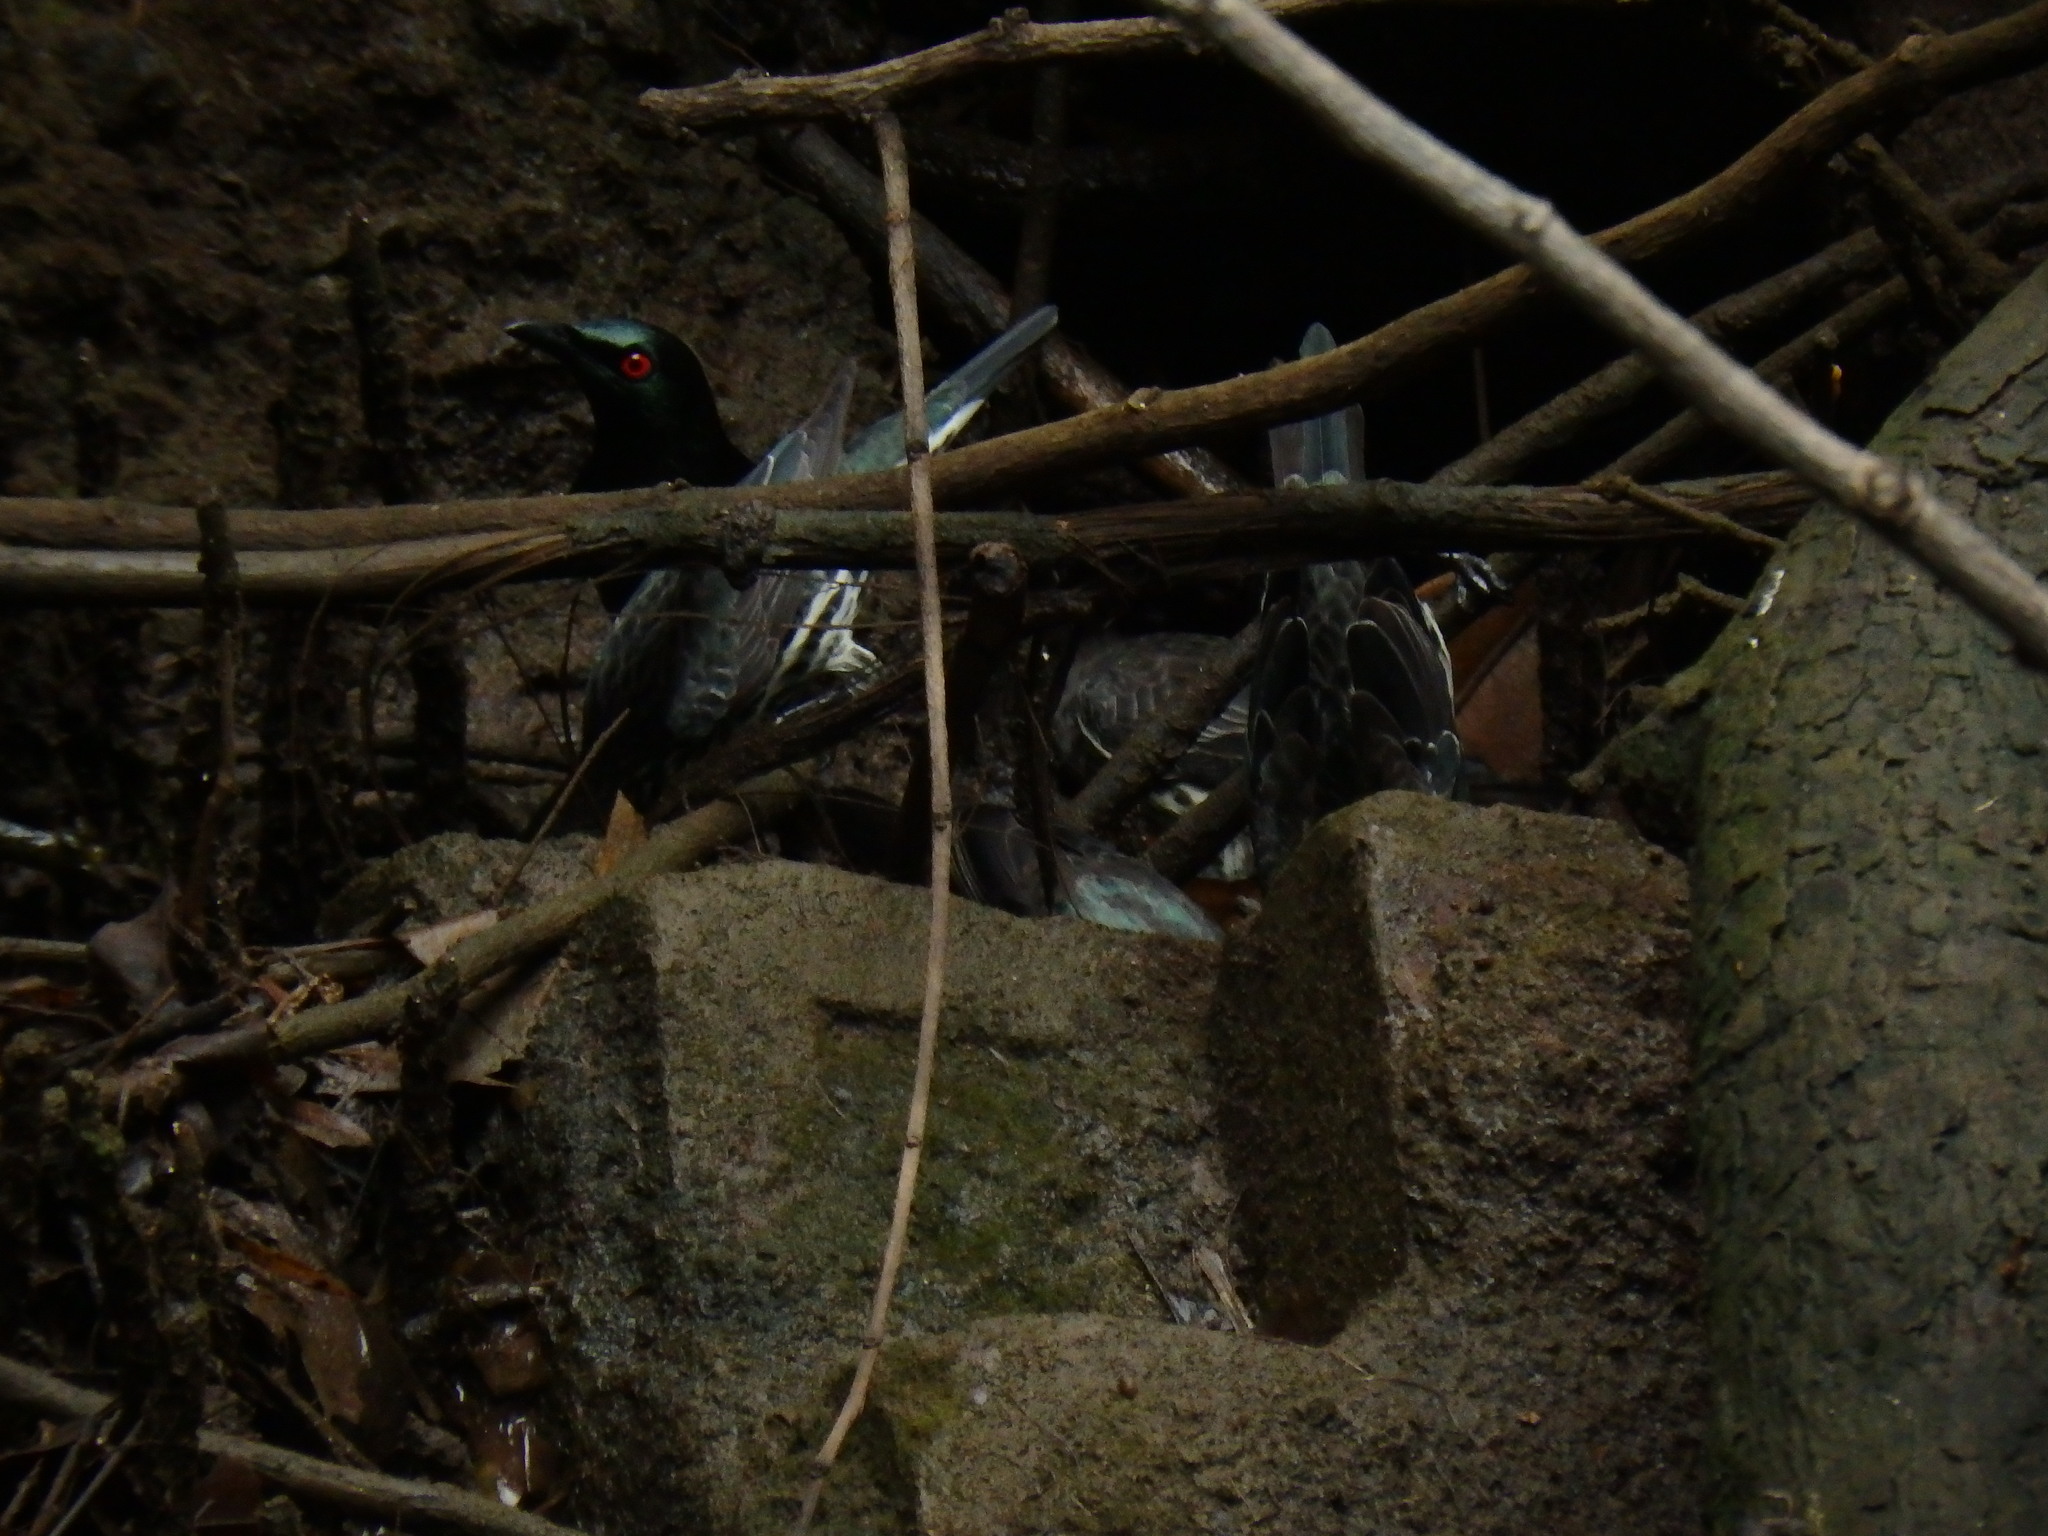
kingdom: Animalia
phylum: Chordata
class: Aves
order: Passeriformes
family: Sturnidae
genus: Aplonis
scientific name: Aplonis panayensis
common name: Asian glossy starling
